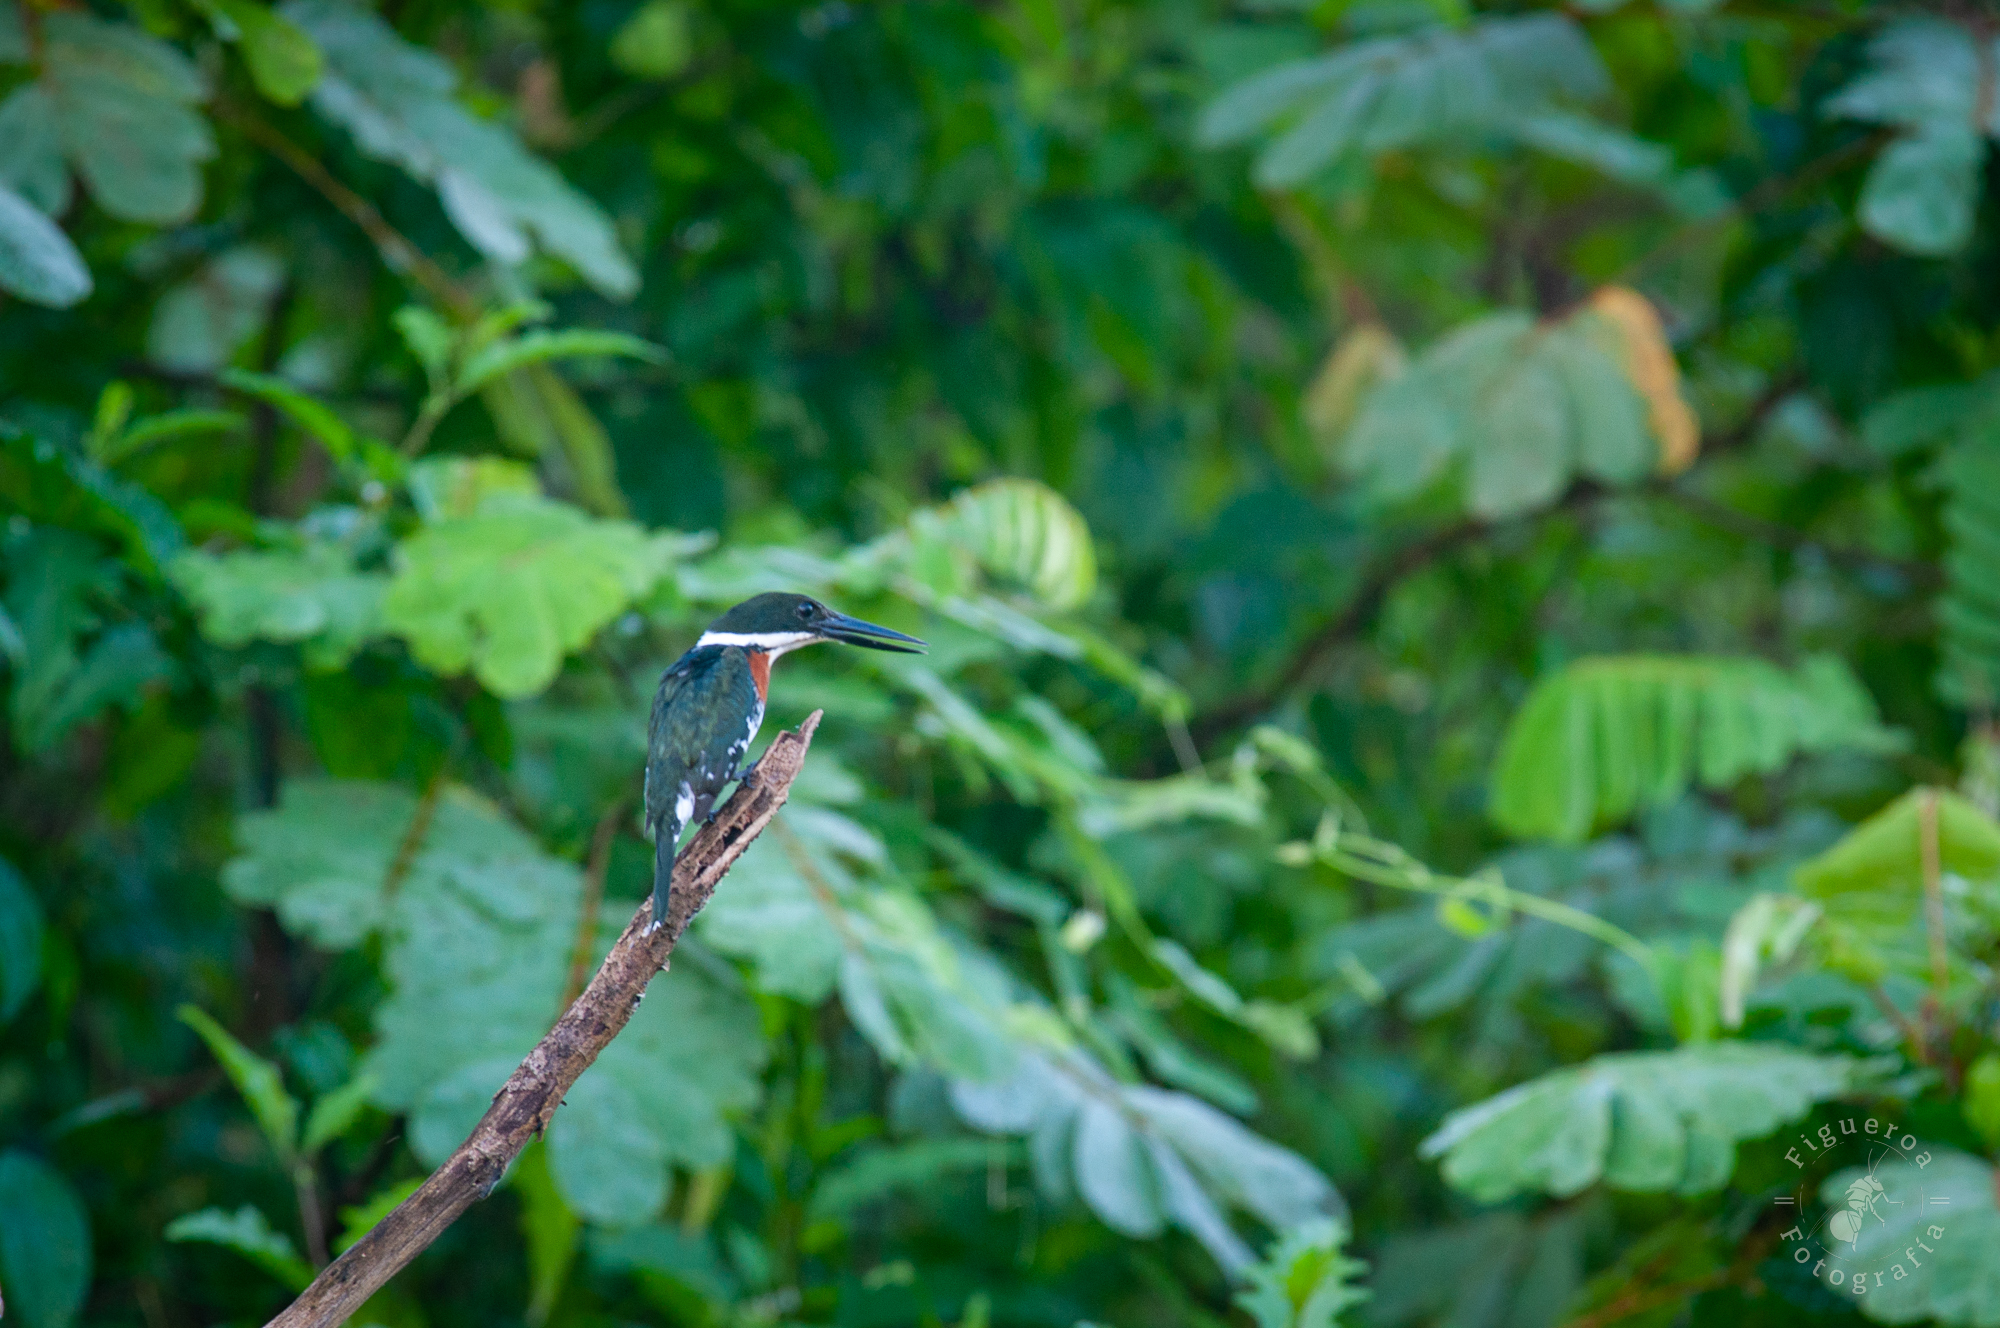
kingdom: Animalia
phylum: Chordata
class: Aves
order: Coraciiformes
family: Alcedinidae
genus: Chloroceryle
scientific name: Chloroceryle americana
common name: Green kingfisher
